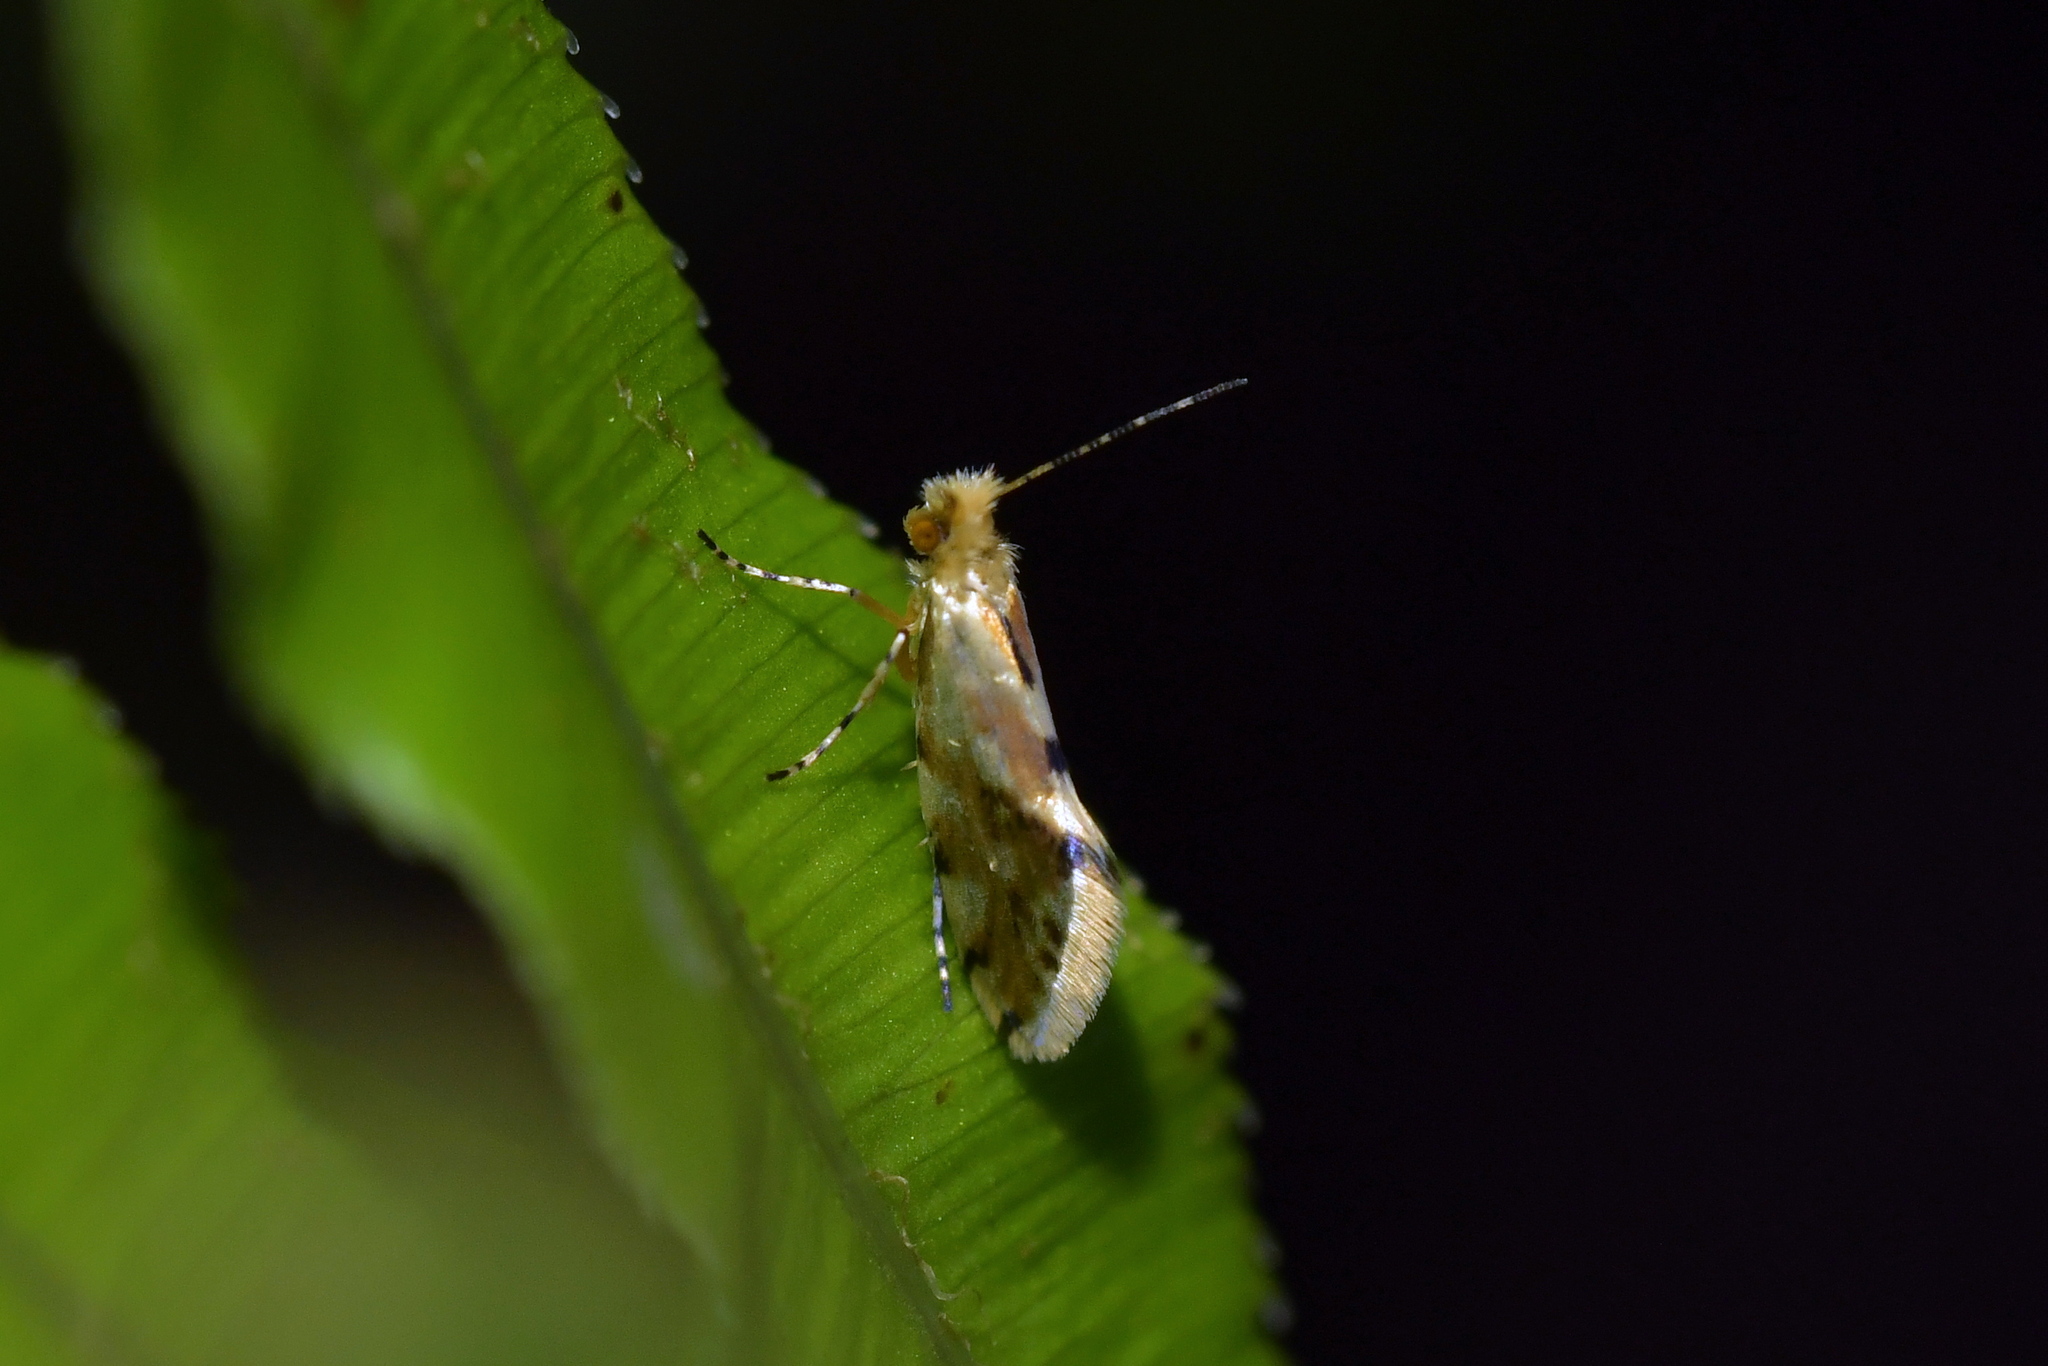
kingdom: Animalia
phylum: Arthropoda
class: Insecta
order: Lepidoptera
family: Micropterigidae
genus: Sabatinca
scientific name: Sabatinca chalcophanes
